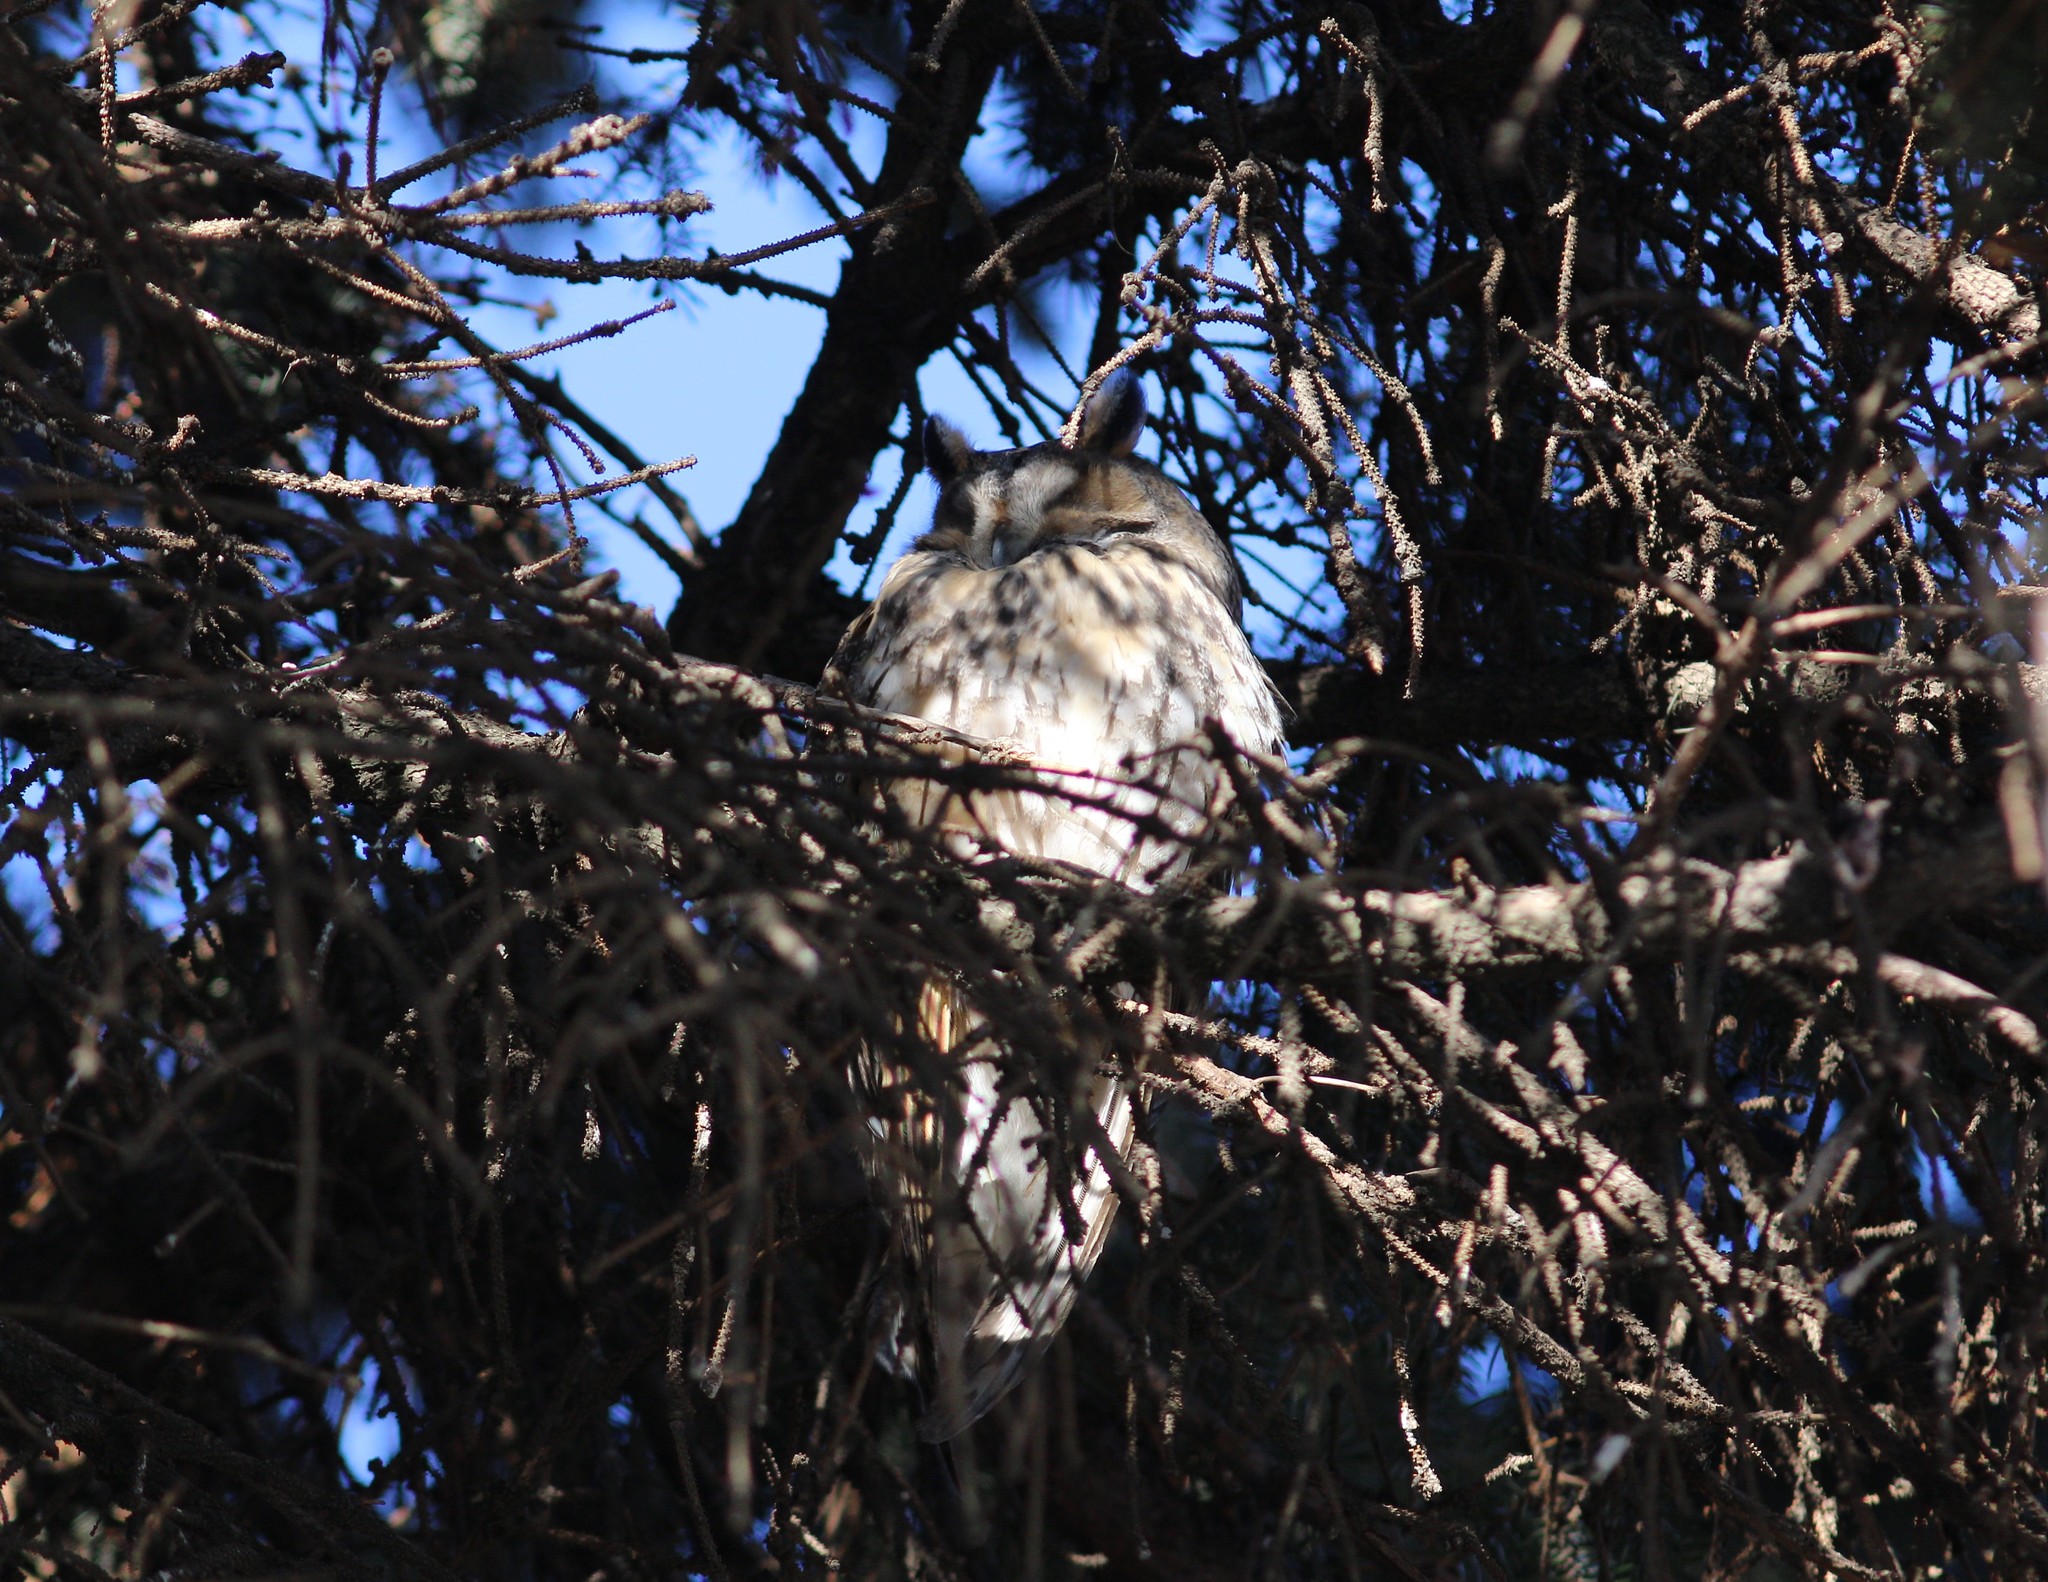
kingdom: Animalia
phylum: Chordata
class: Aves
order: Strigiformes
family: Strigidae
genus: Asio
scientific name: Asio otus
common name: Long-eared owl
